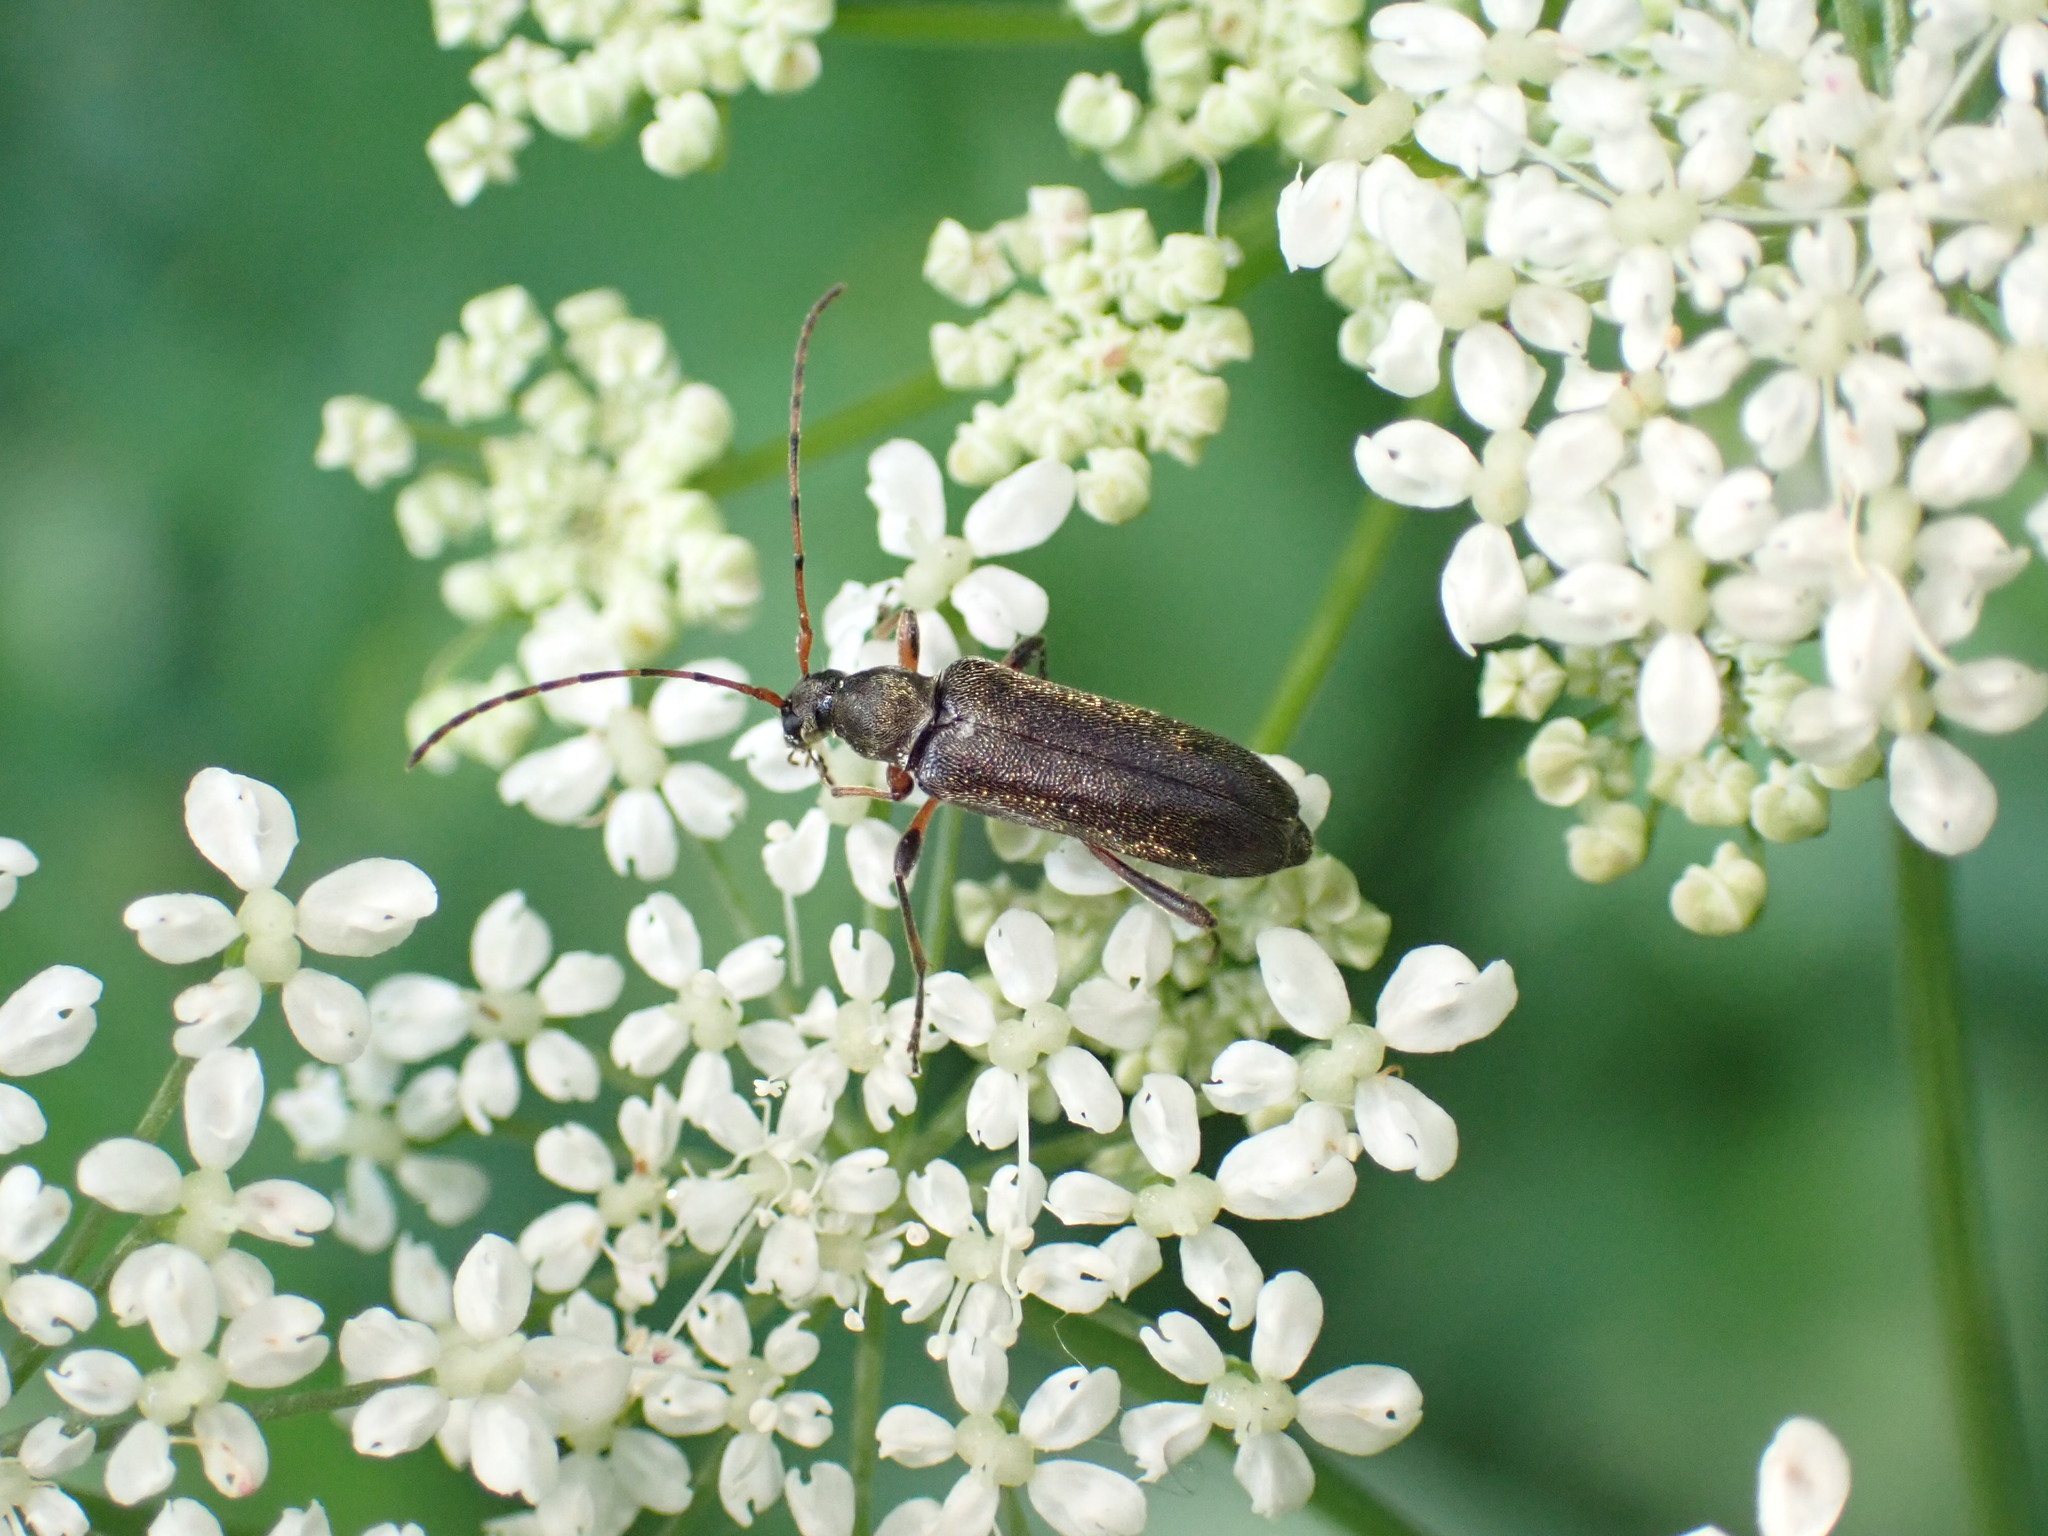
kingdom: Animalia
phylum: Arthropoda
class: Insecta
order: Coleoptera
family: Cerambycidae
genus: Grammoptera
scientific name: Grammoptera ruficornis
